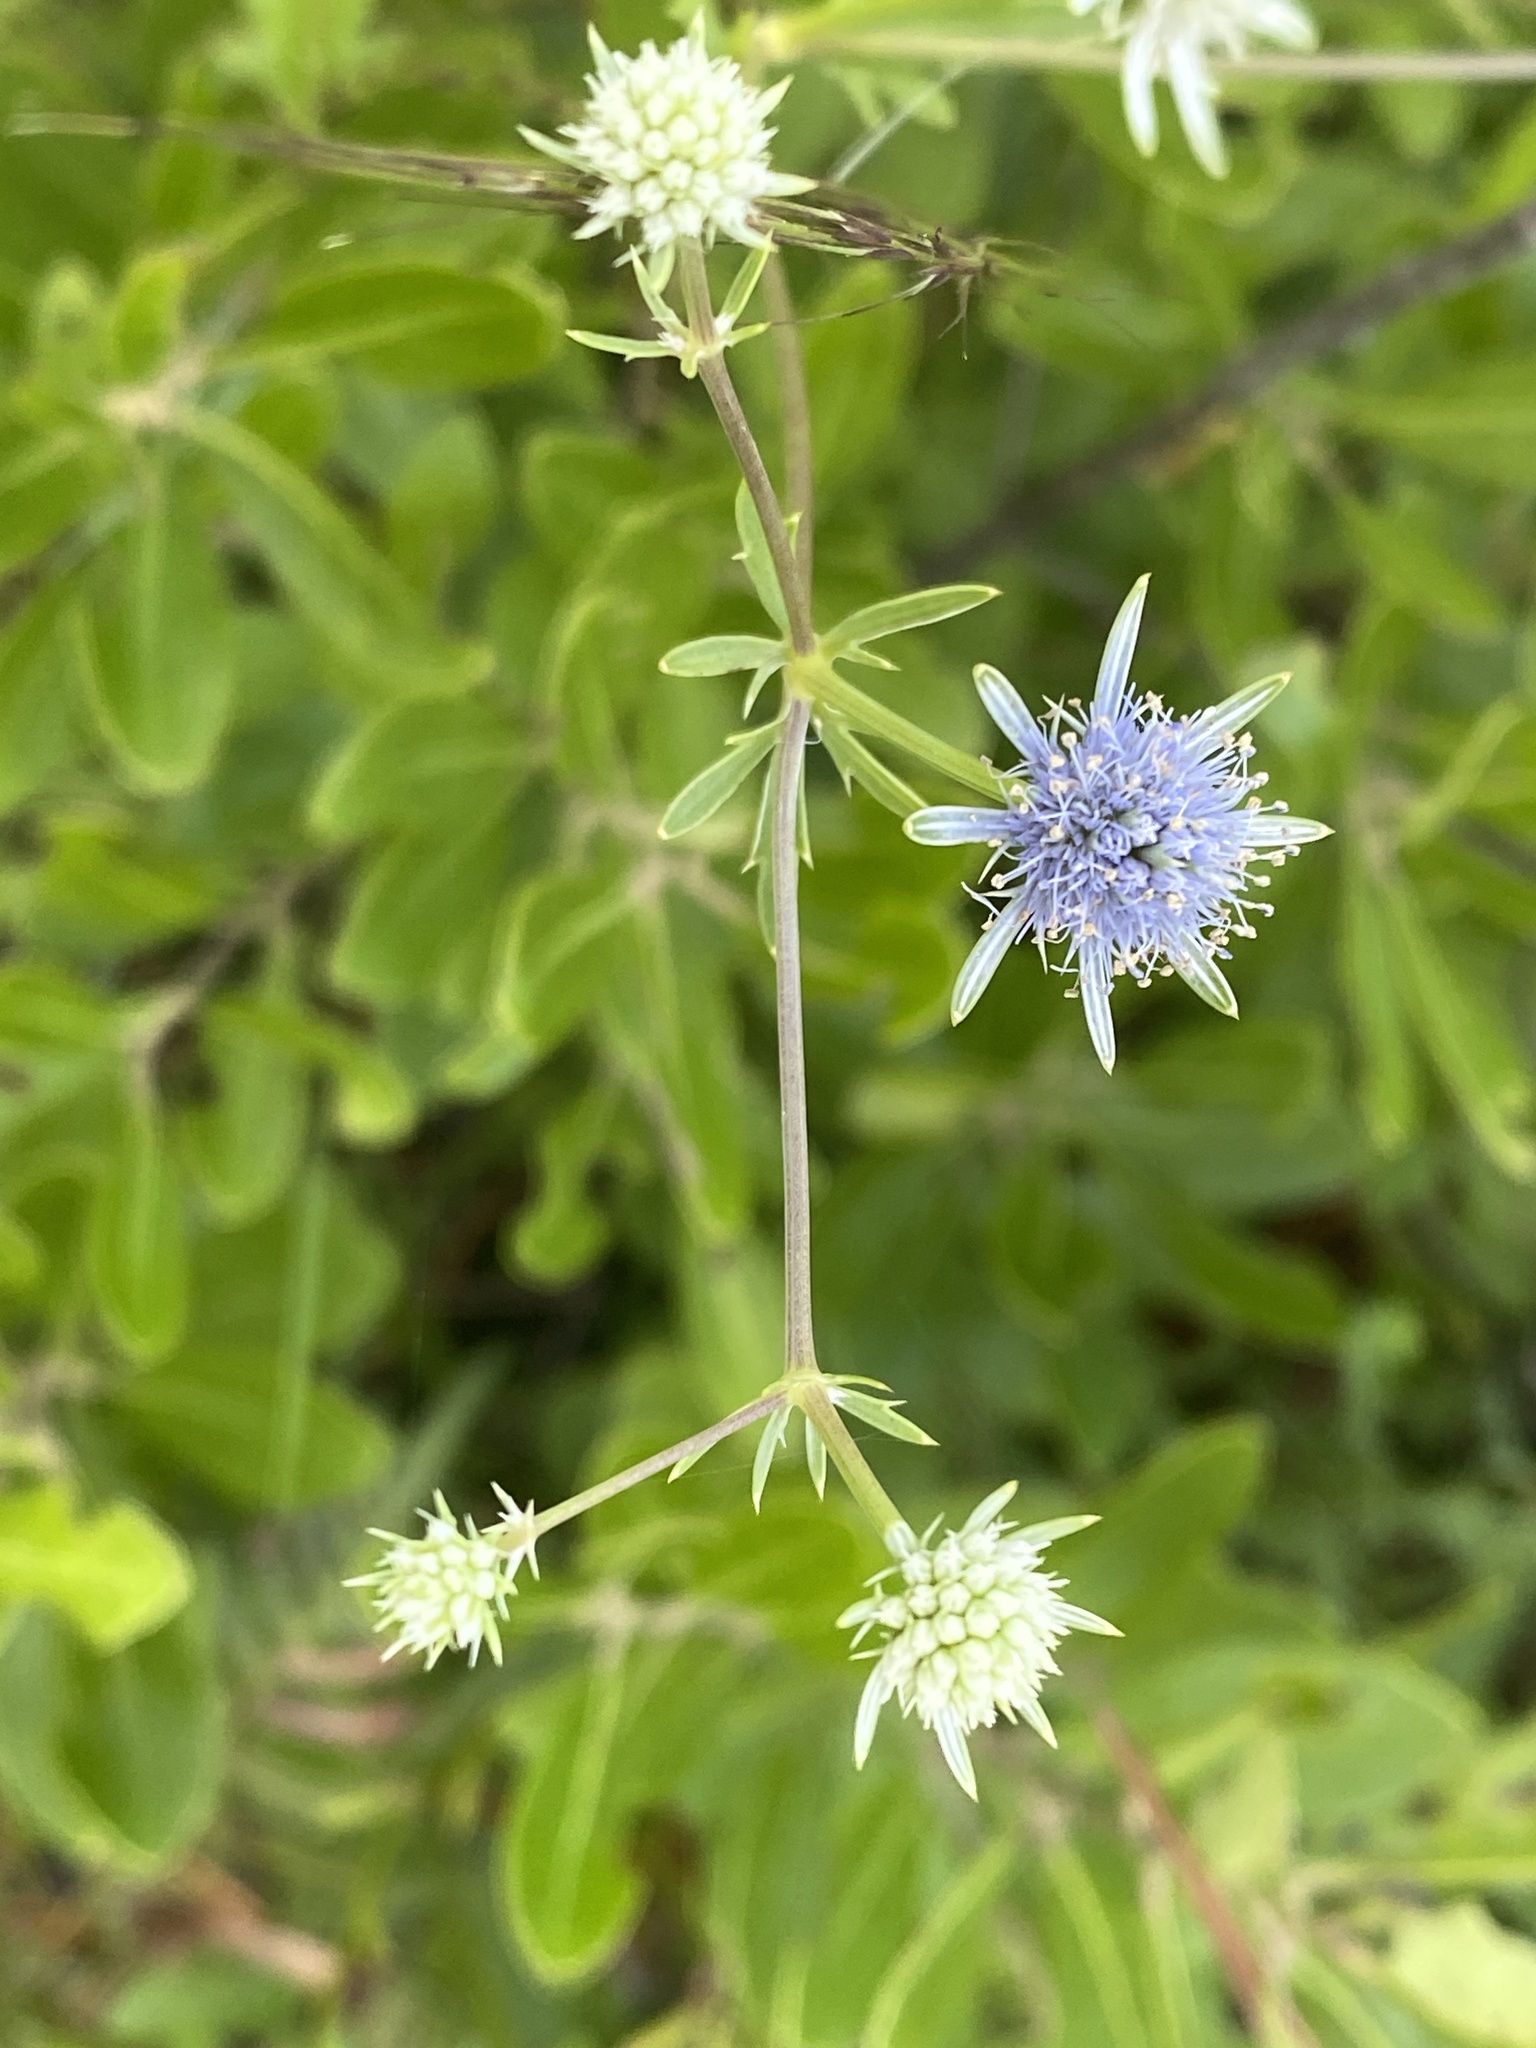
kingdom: Plantae
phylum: Tracheophyta
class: Magnoliopsida
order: Apiales
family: Apiaceae
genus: Eryngium
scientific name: Eryngium integrifolium
